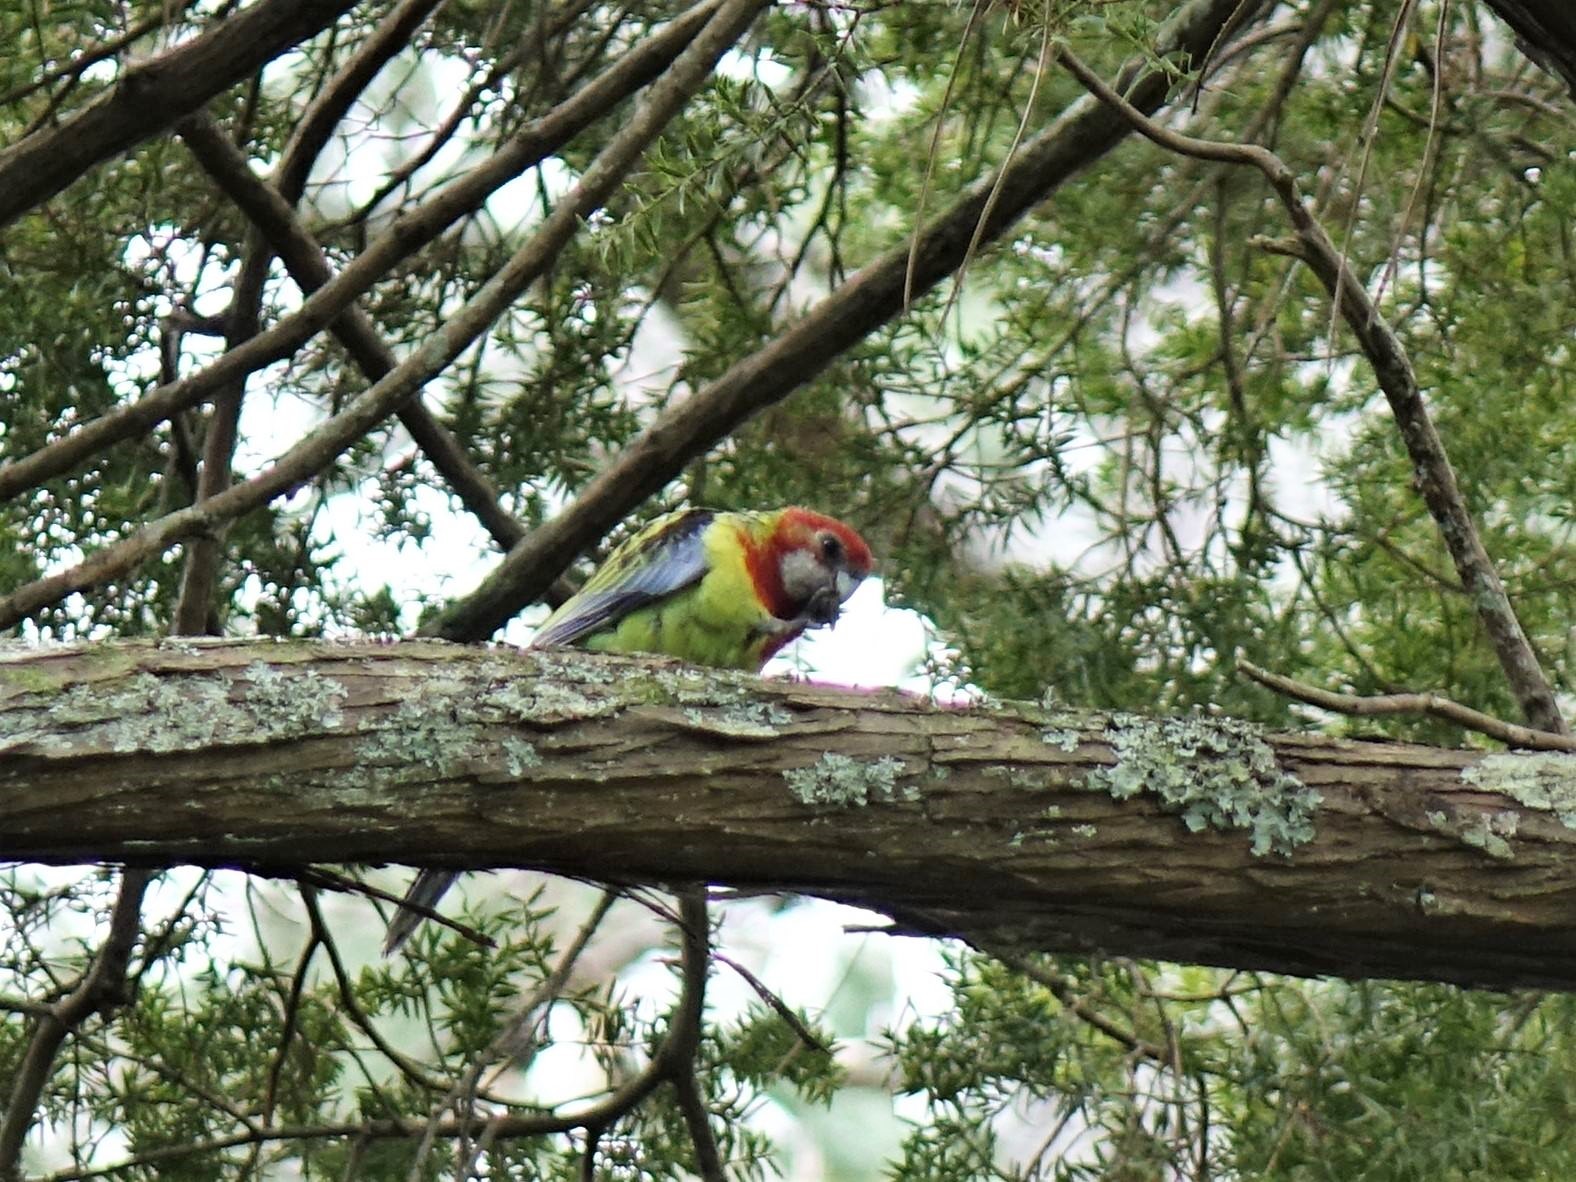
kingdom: Animalia
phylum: Chordata
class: Aves
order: Psittaciformes
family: Psittacidae
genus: Platycercus
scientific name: Platycercus eximius
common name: Eastern rosella
